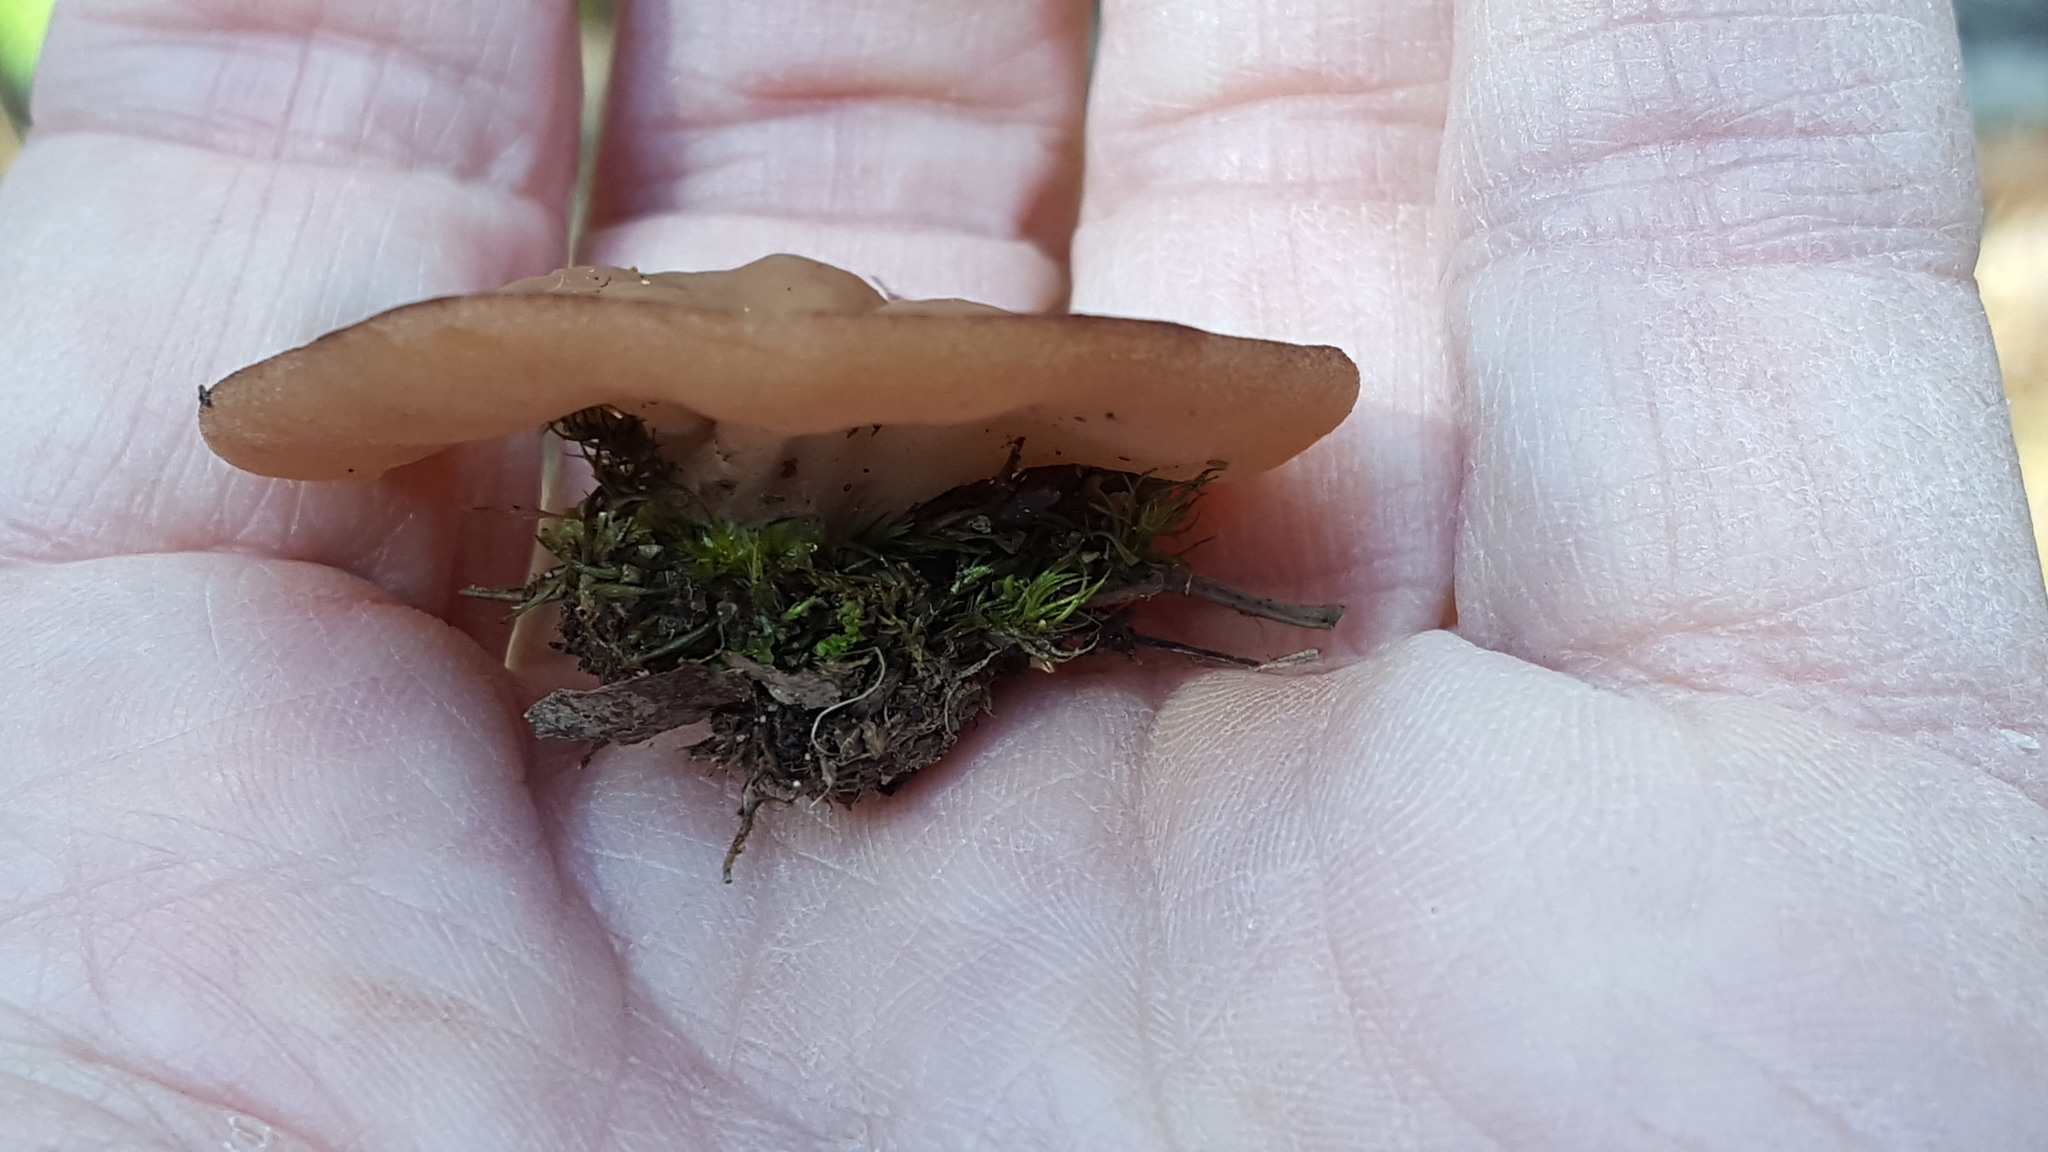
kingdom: Fungi
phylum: Ascomycota
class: Pezizomycetes
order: Pezizales
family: Discinaceae
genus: Discina
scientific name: Discina ancilis
